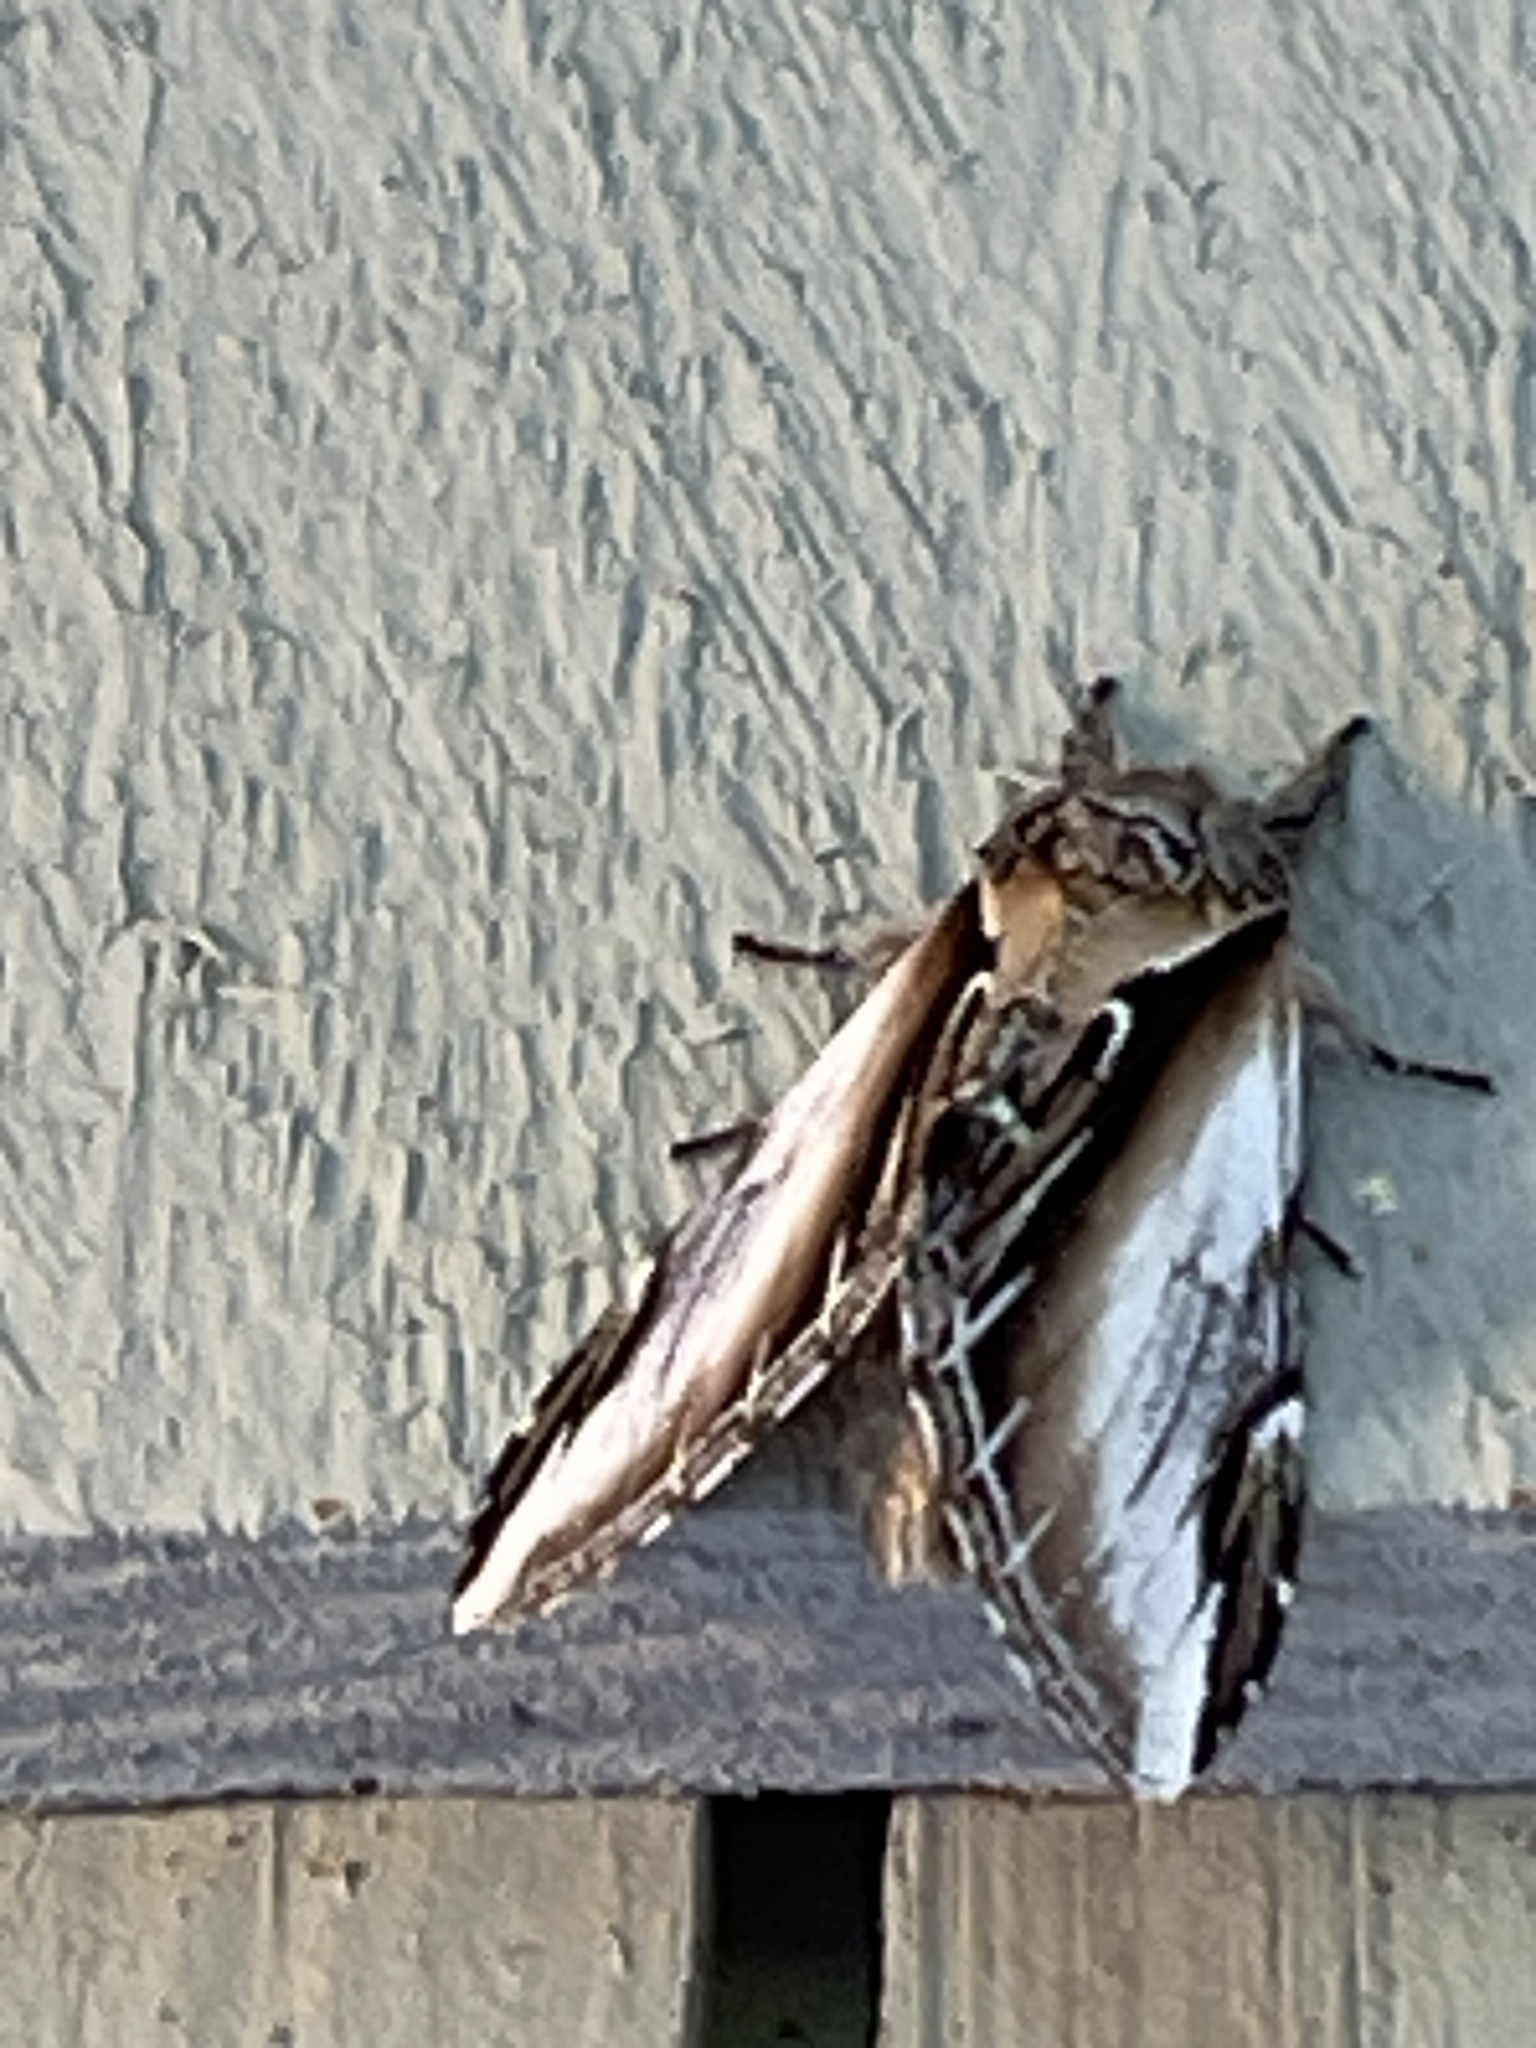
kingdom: Animalia
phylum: Arthropoda
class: Insecta
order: Lepidoptera
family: Notodontidae
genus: Pheosia
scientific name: Pheosia rimosa
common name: Black-rimmed prominent
